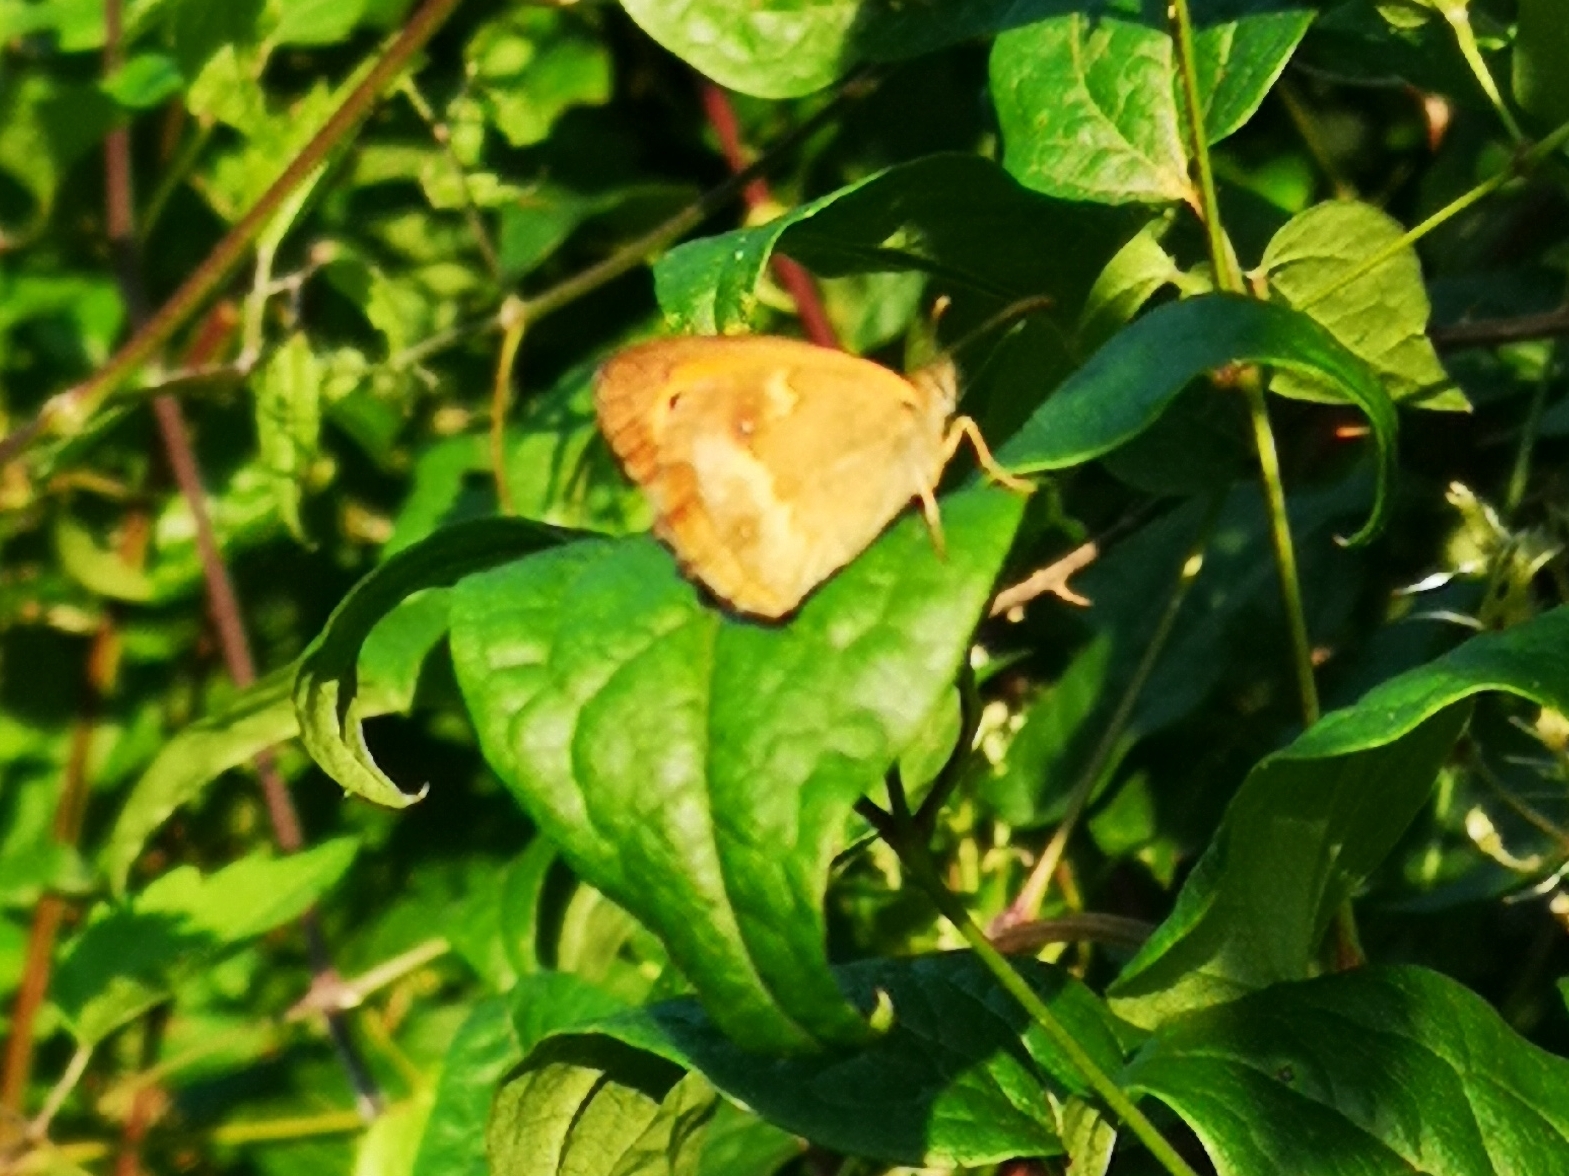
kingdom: Animalia
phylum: Arthropoda
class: Insecta
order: Lepidoptera
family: Nymphalidae
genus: Pyronia
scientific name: Pyronia tithonus
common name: Gatekeeper
